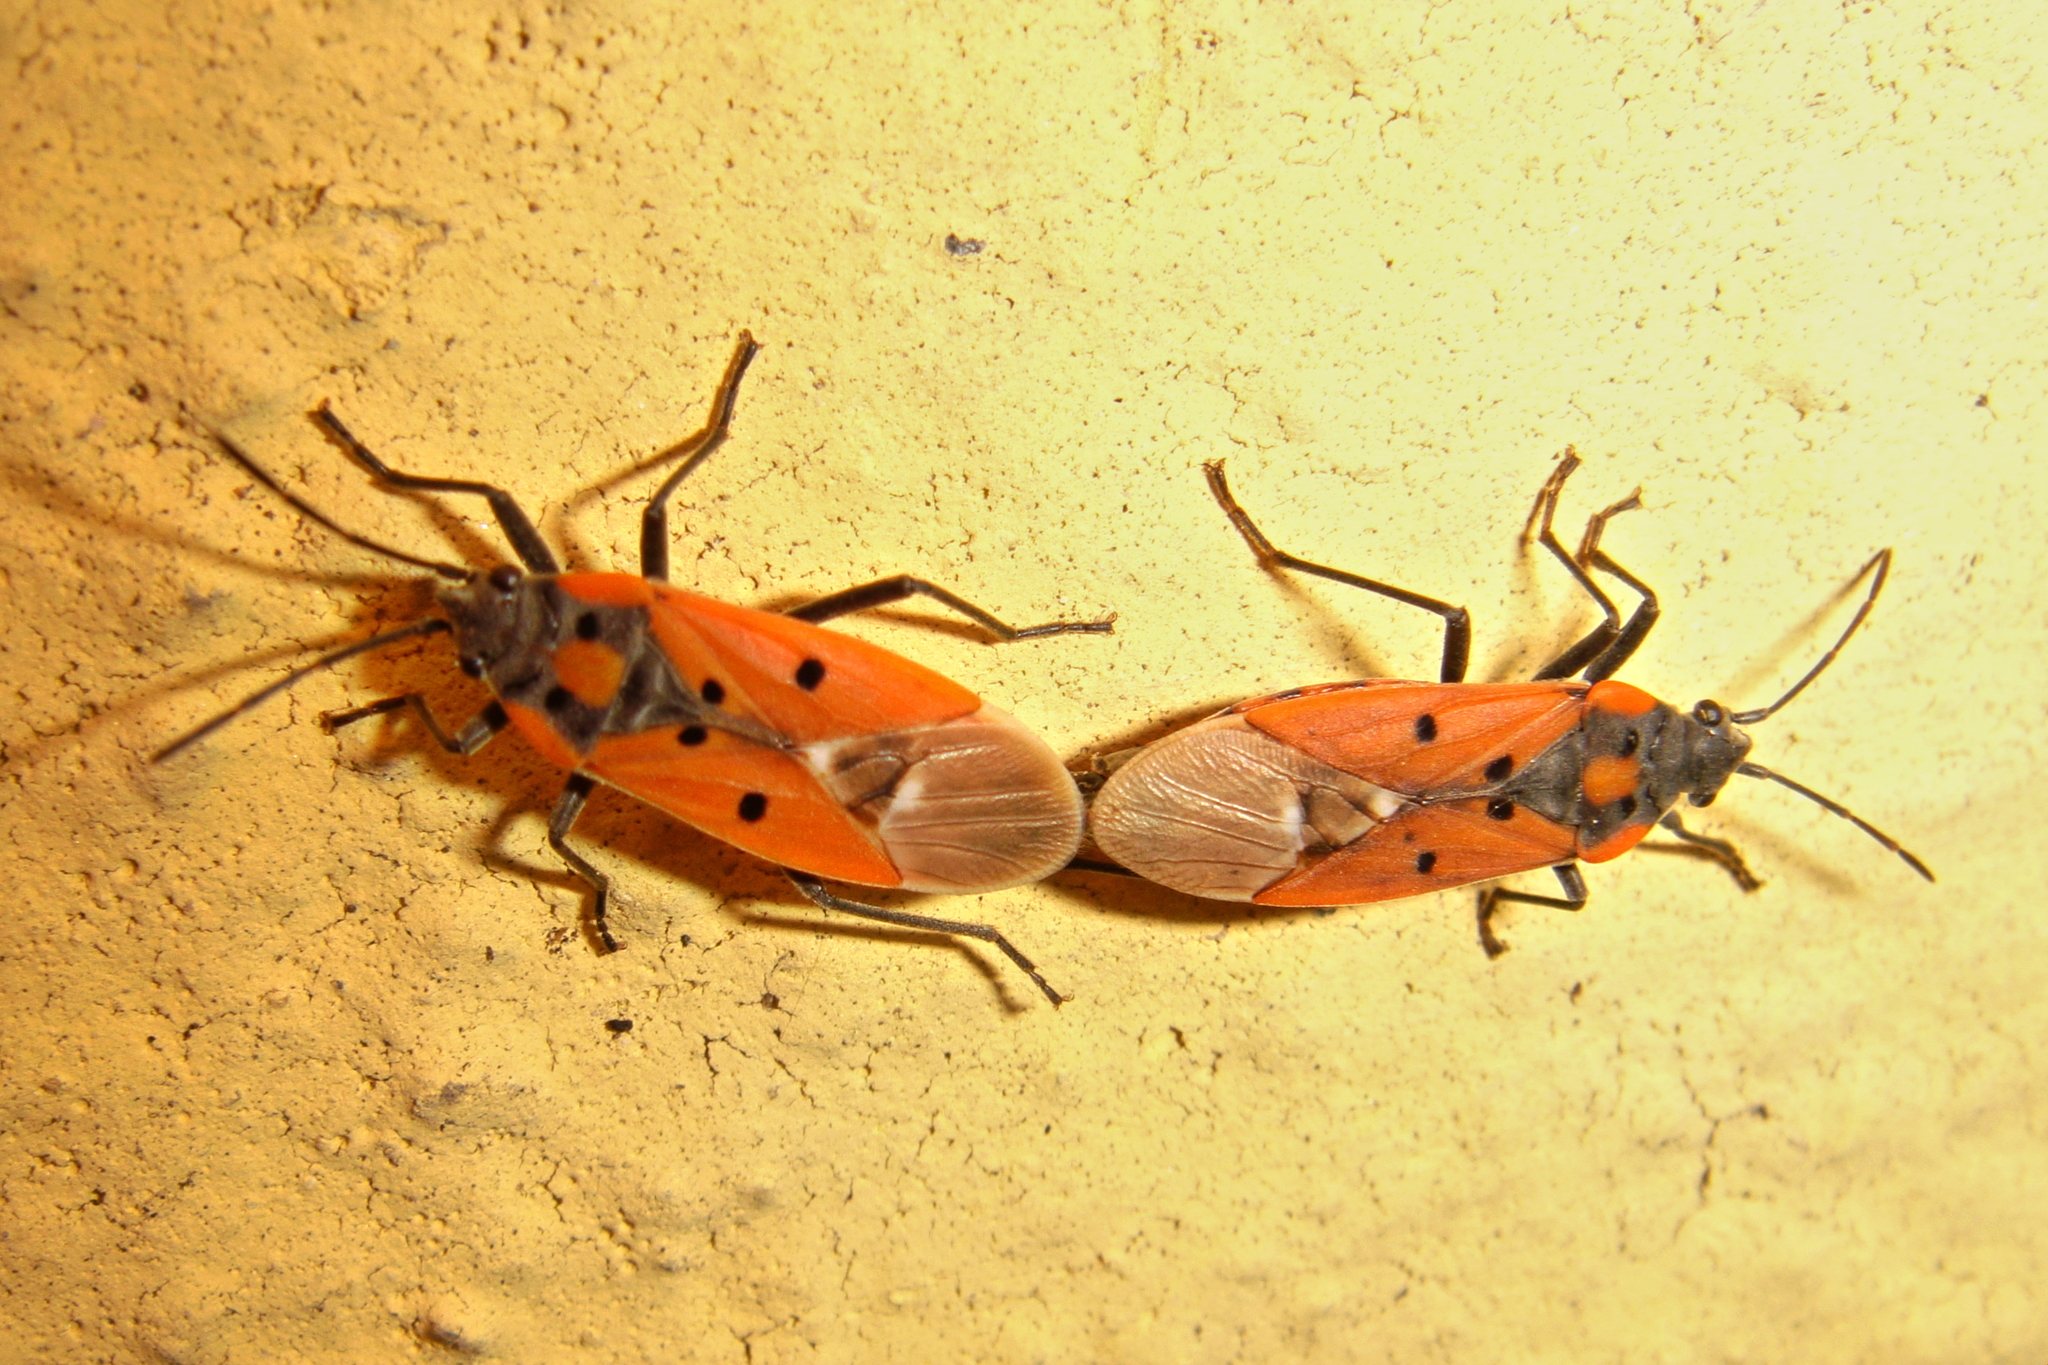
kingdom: Animalia
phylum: Arthropoda
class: Insecta
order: Hemiptera
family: Lygaeidae
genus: Lygaeus
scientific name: Lygaeus creticus
